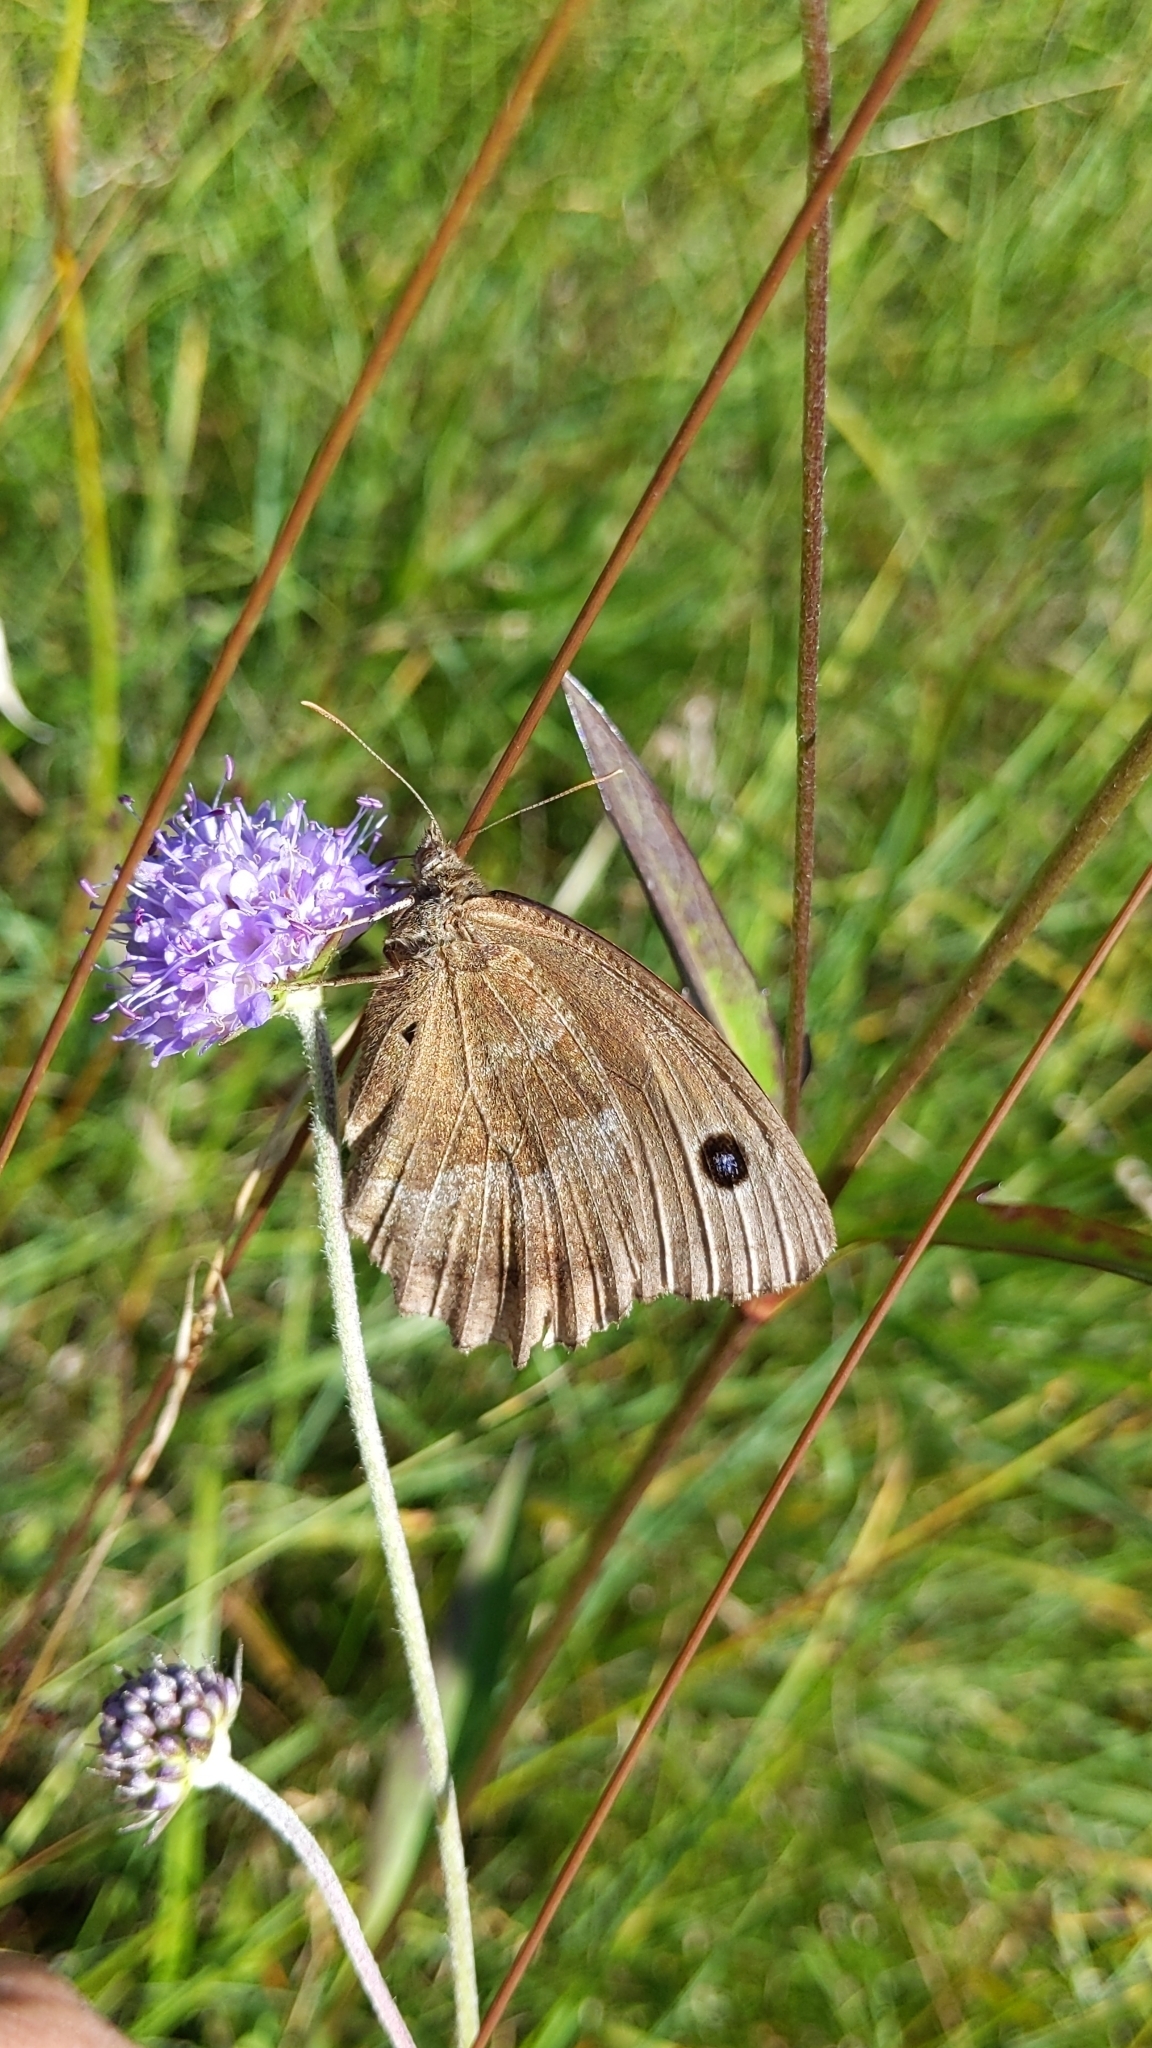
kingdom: Animalia
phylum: Arthropoda
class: Insecta
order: Lepidoptera
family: Nymphalidae
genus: Minois
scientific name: Minois dryas
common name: Dryad
